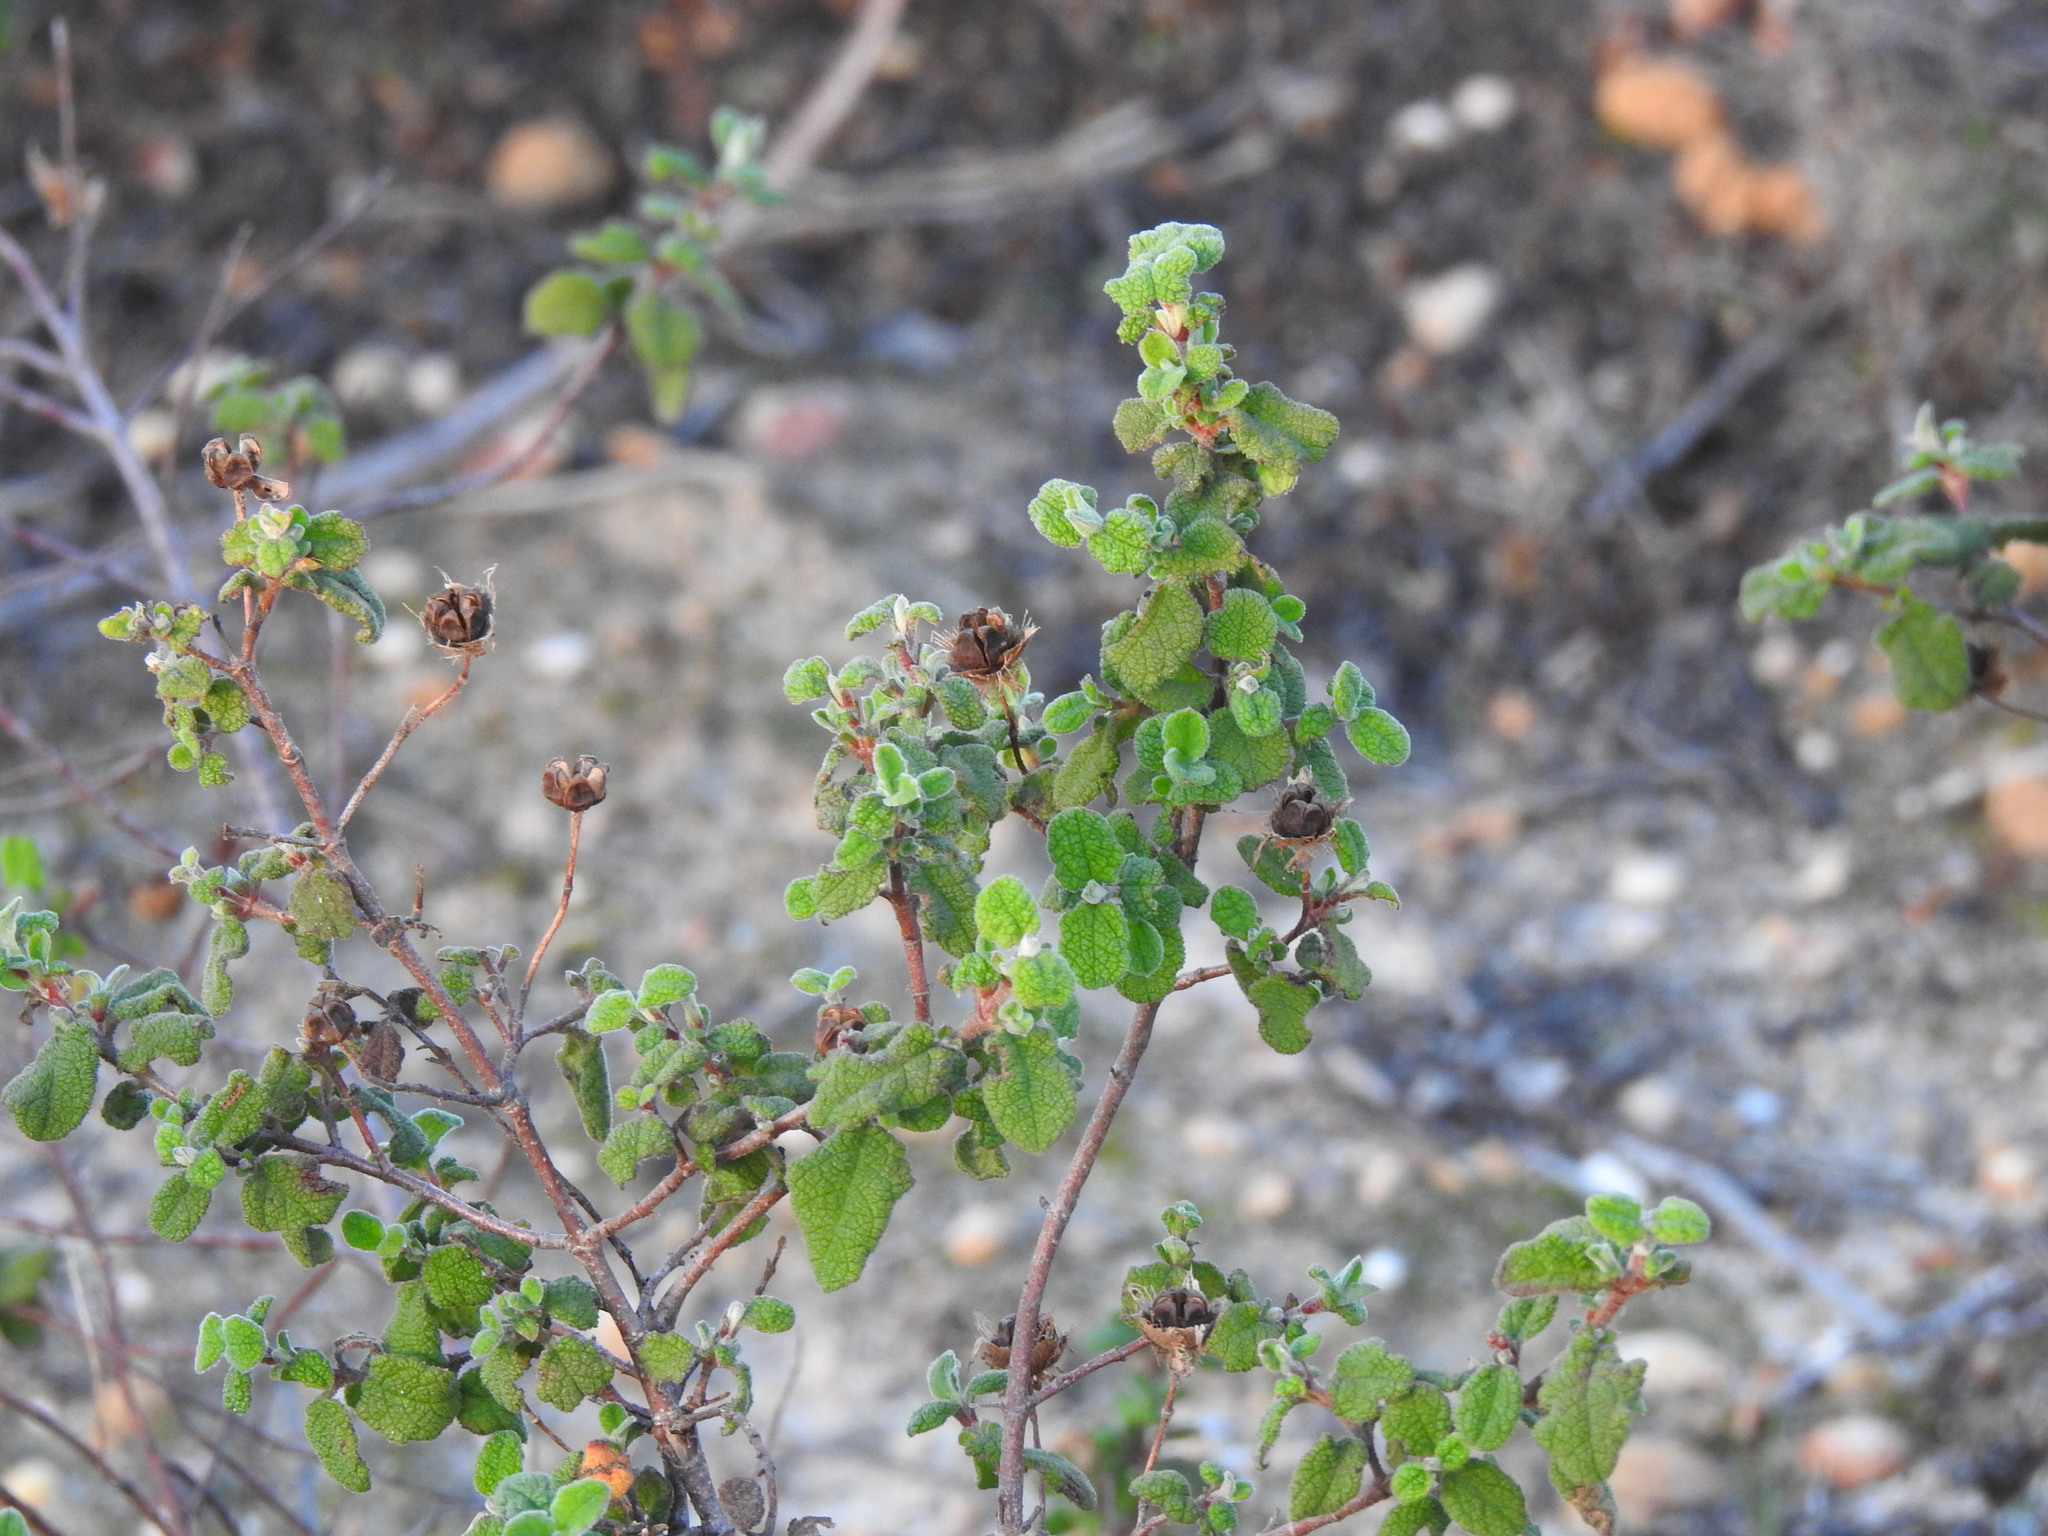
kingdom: Plantae
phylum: Tracheophyta
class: Magnoliopsida
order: Malvales
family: Cistaceae
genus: Cistus
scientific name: Cistus salviifolius
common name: Salvia cistus
